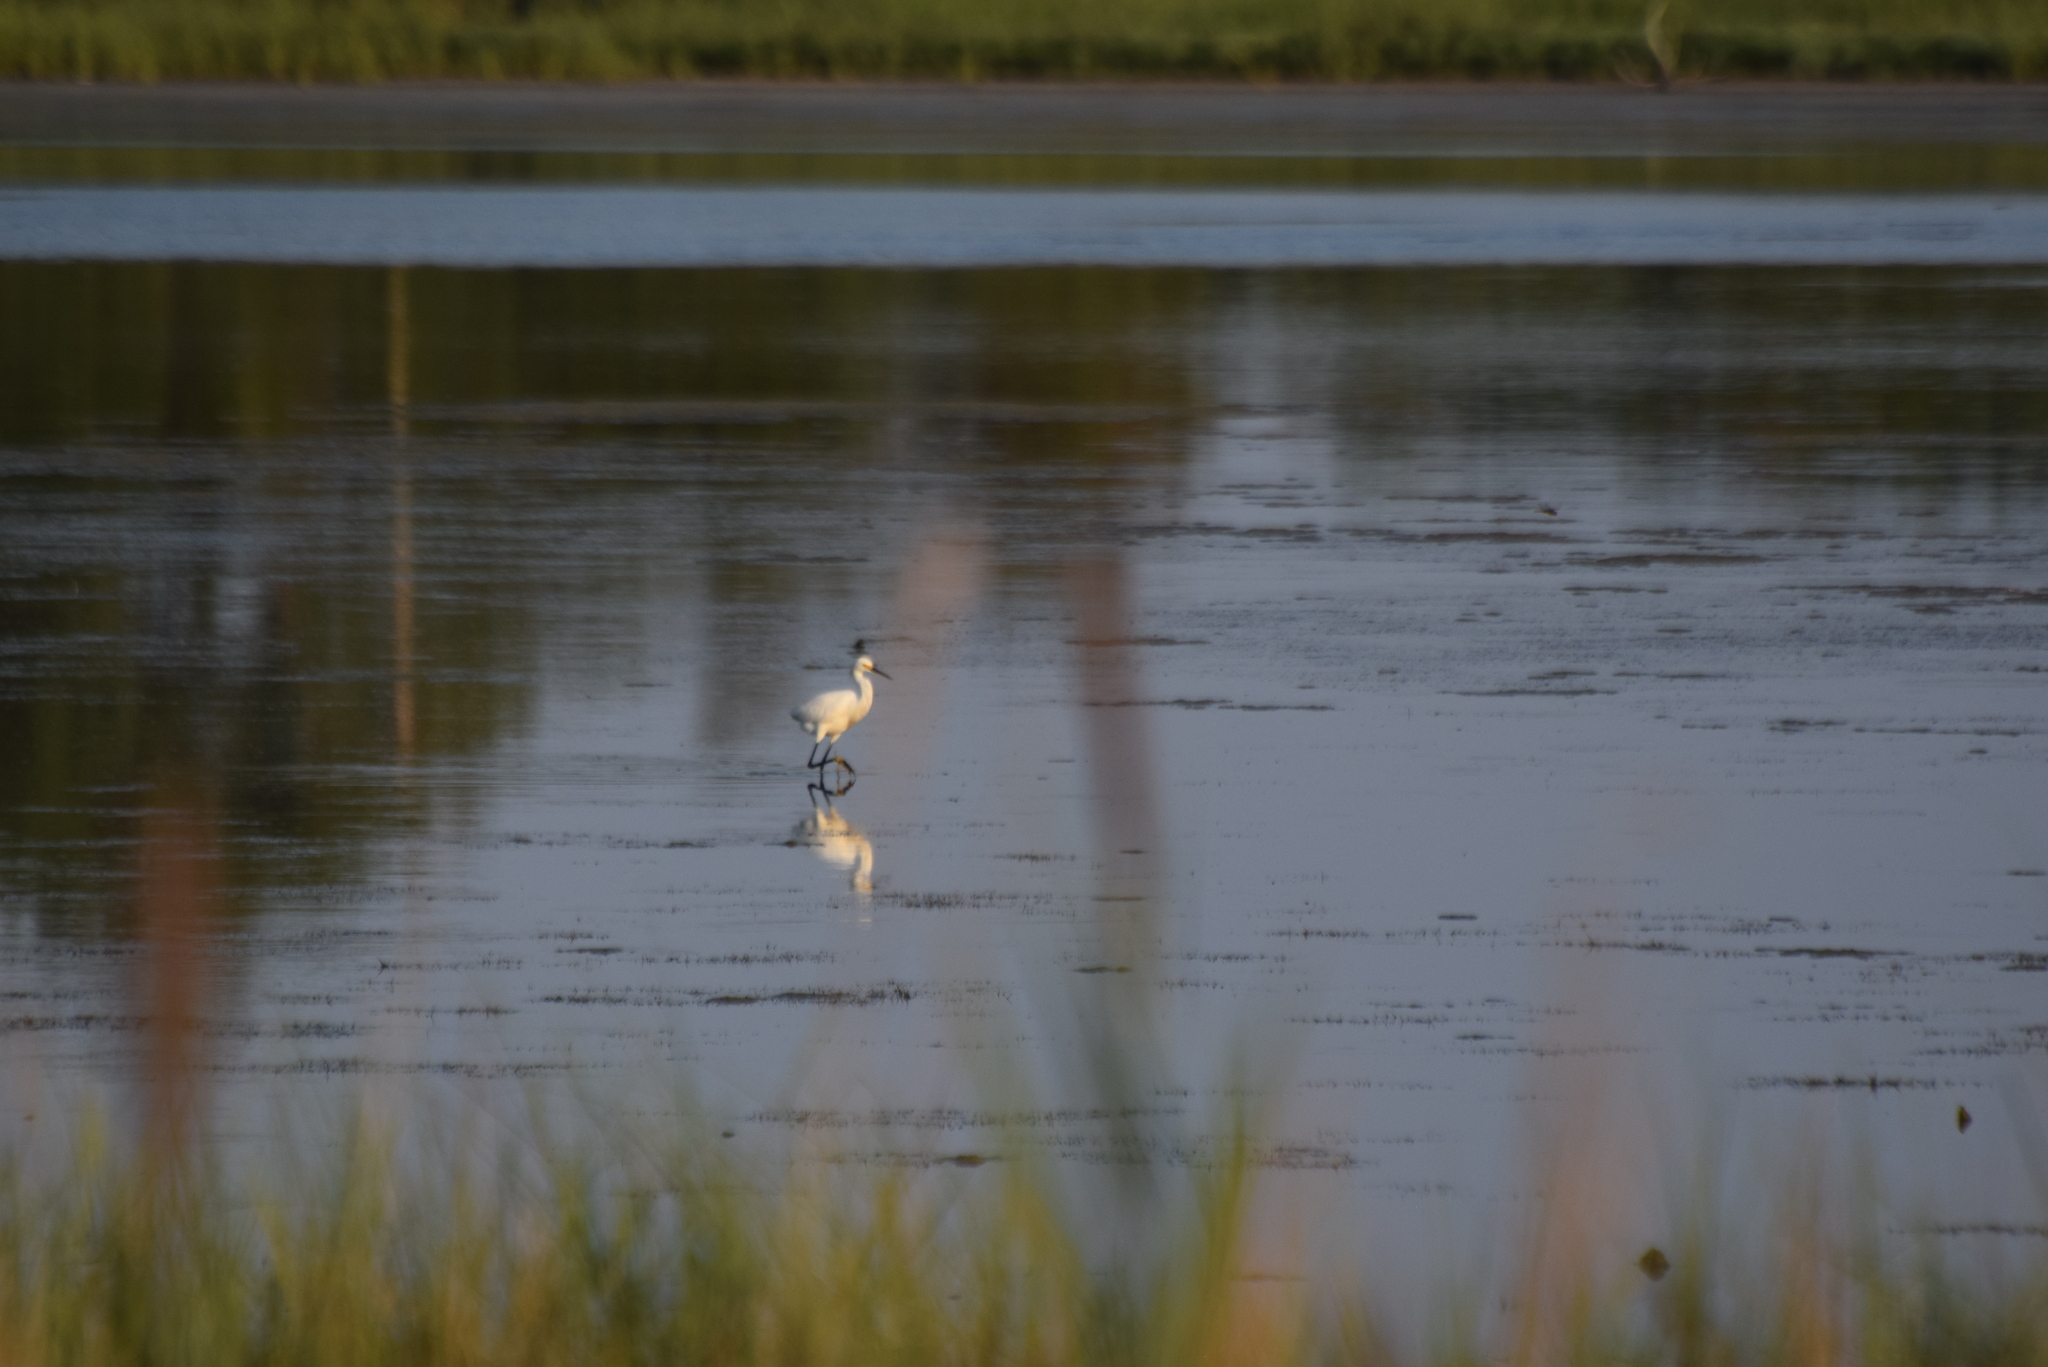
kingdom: Animalia
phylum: Chordata
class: Aves
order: Pelecaniformes
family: Ardeidae
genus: Egretta
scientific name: Egretta thula
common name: Snowy egret
